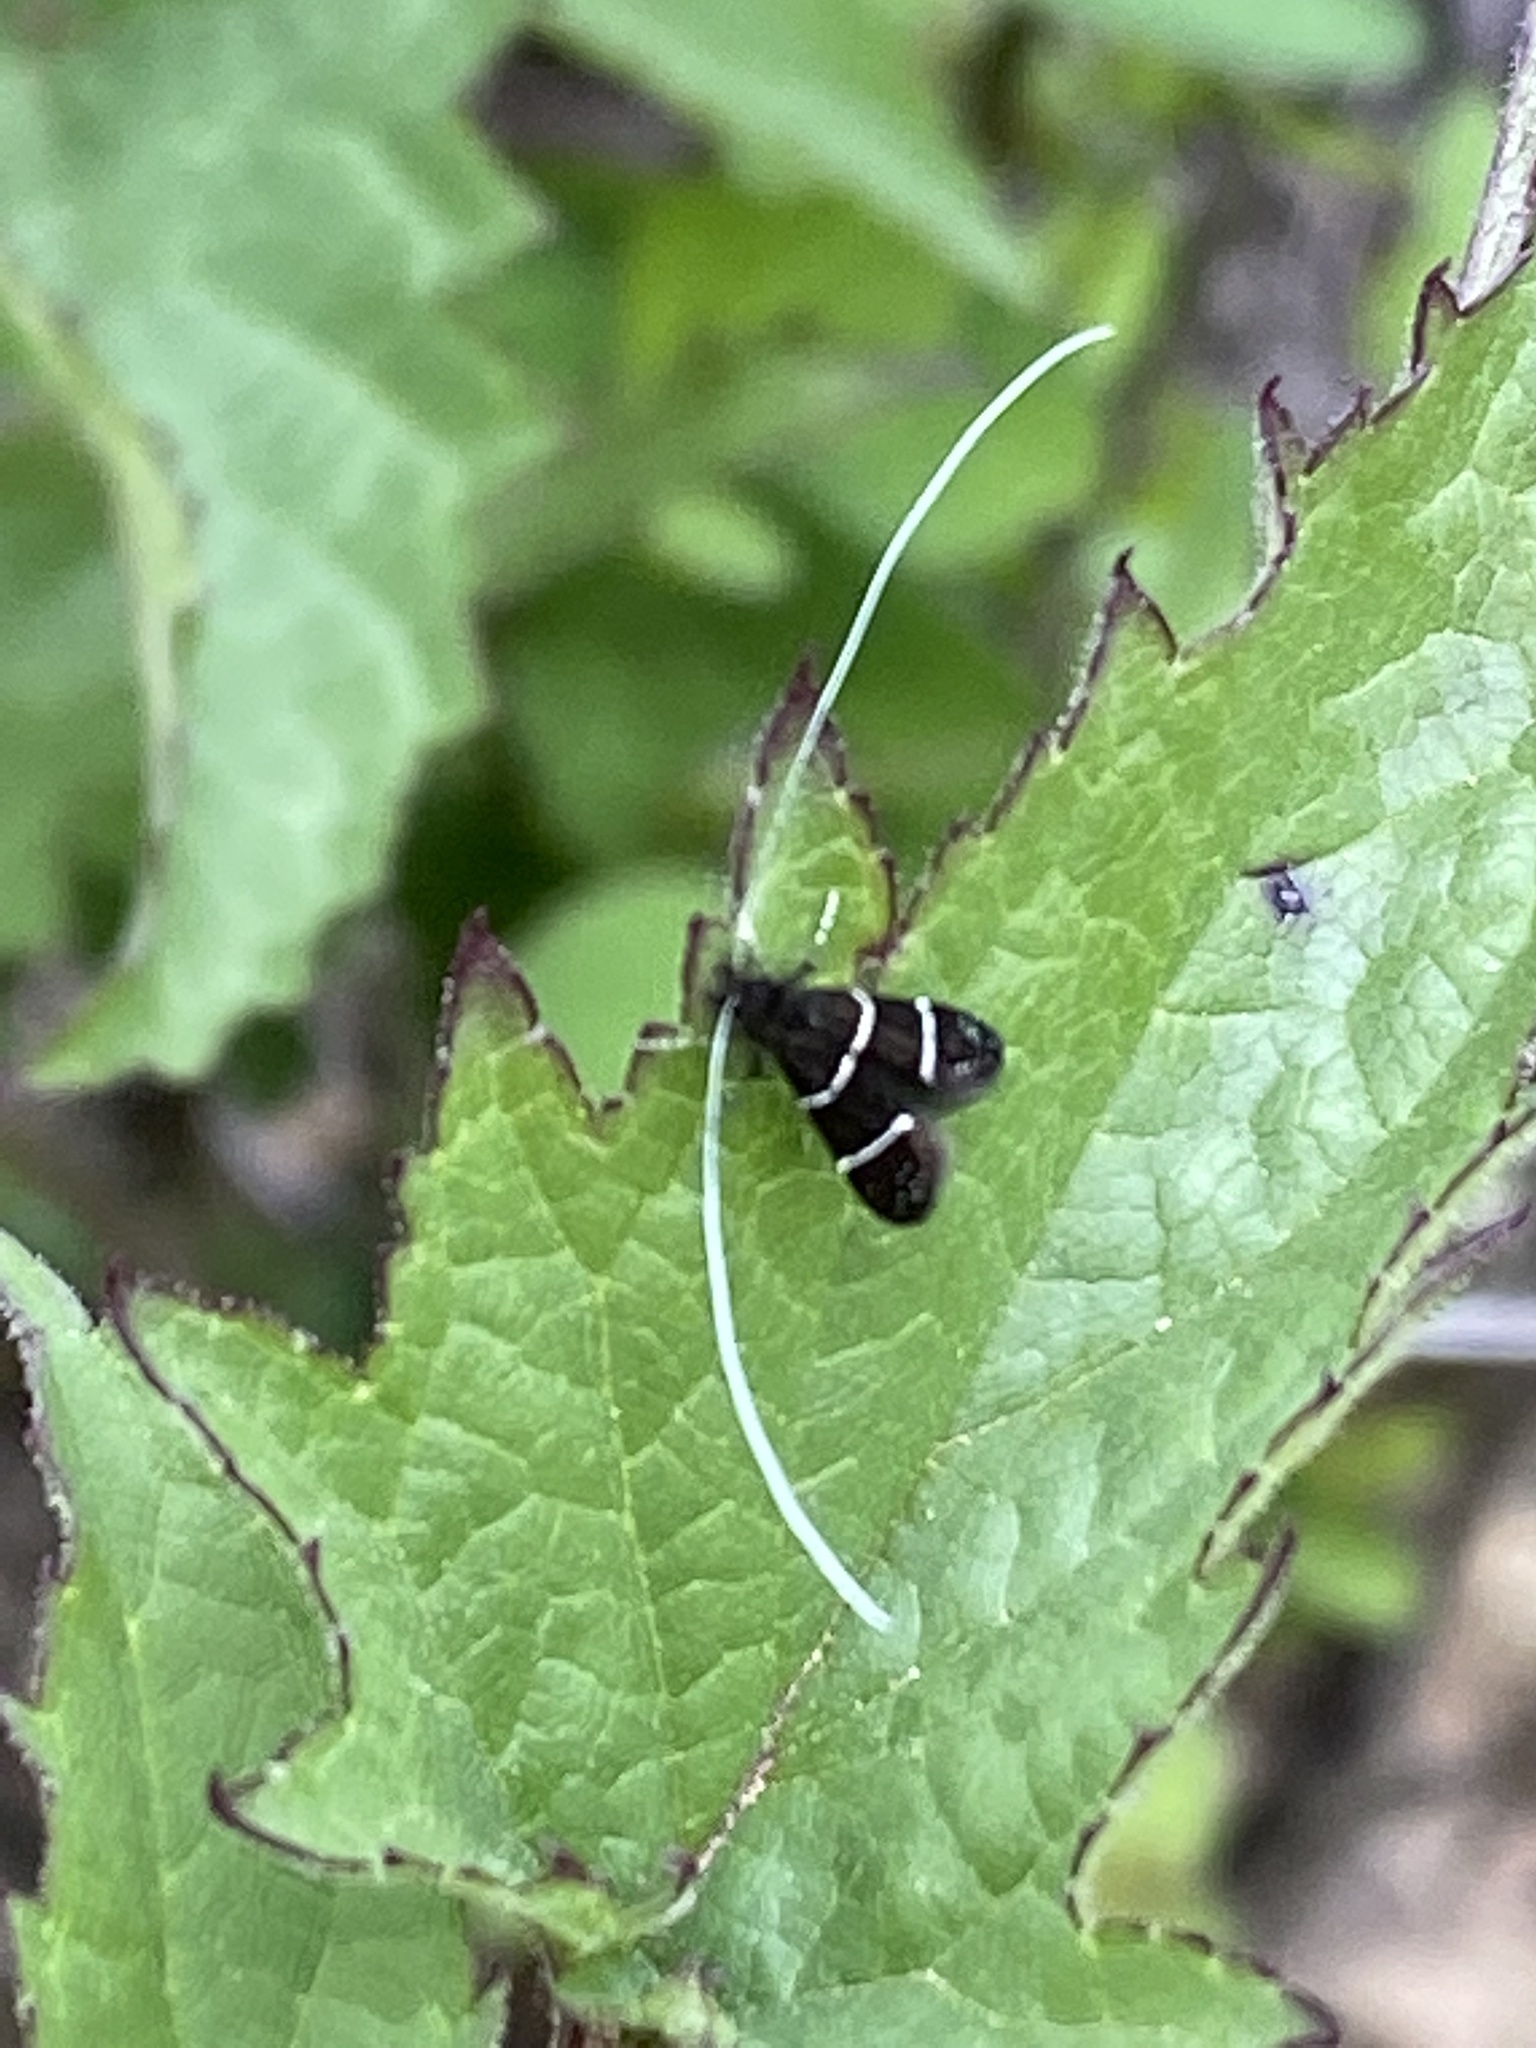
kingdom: Animalia
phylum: Arthropoda
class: Insecta
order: Lepidoptera
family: Adelidae
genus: Adela
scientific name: Adela septentrionella
